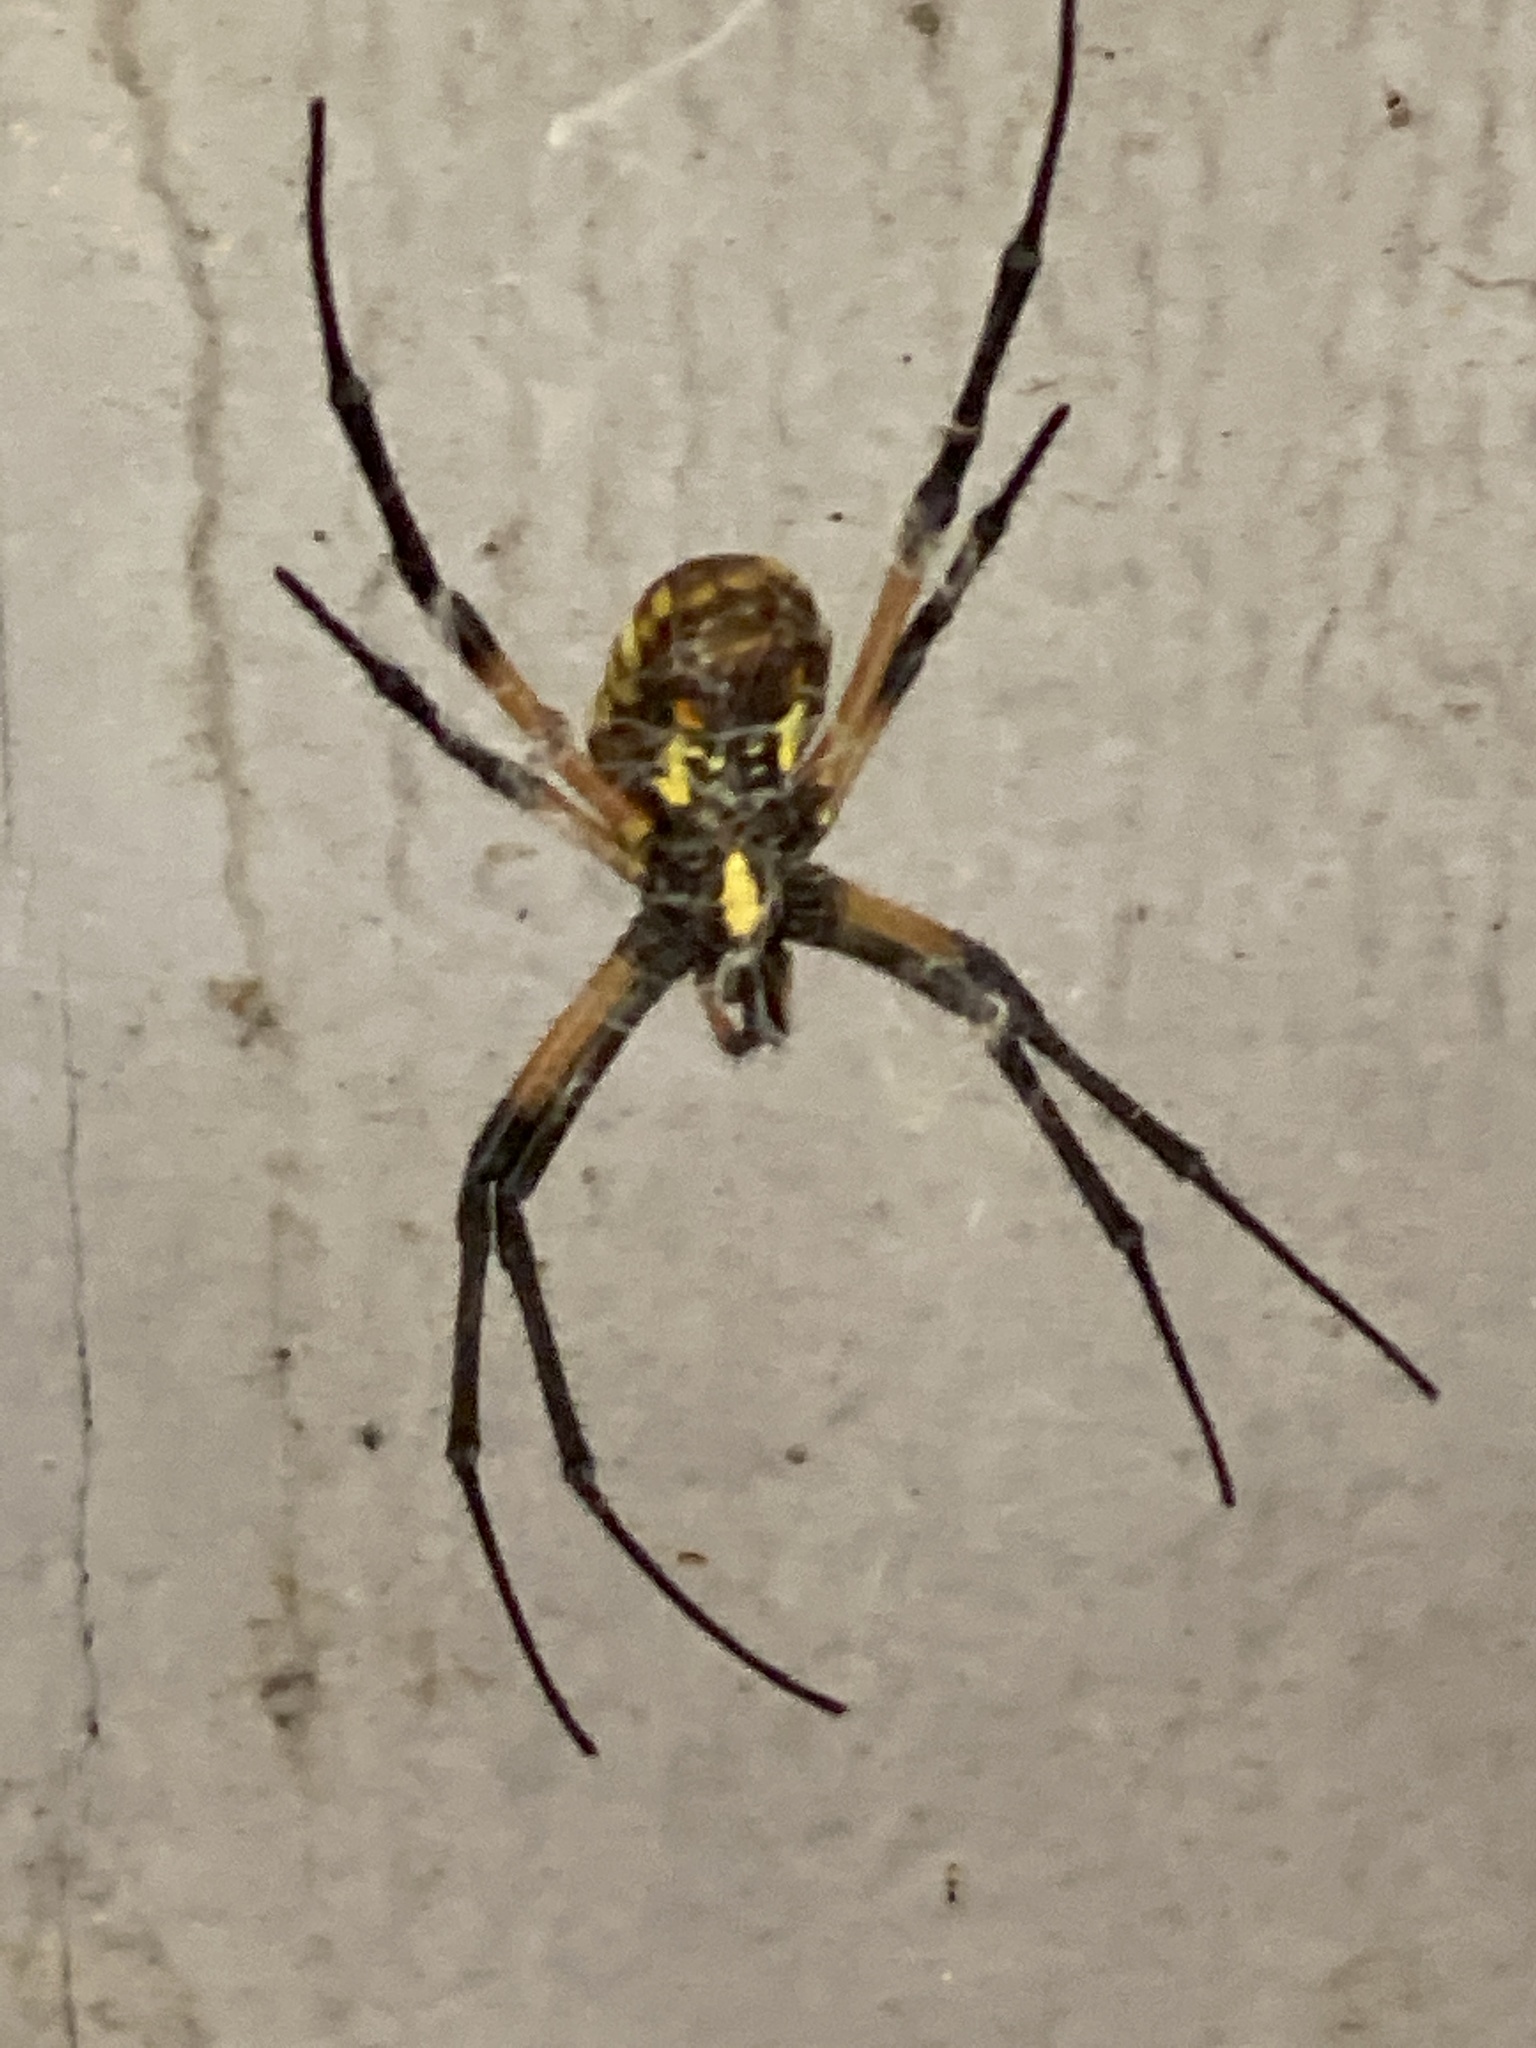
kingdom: Animalia
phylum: Arthropoda
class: Arachnida
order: Araneae
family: Araneidae
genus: Argiope
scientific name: Argiope aurantia
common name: Orb weavers
